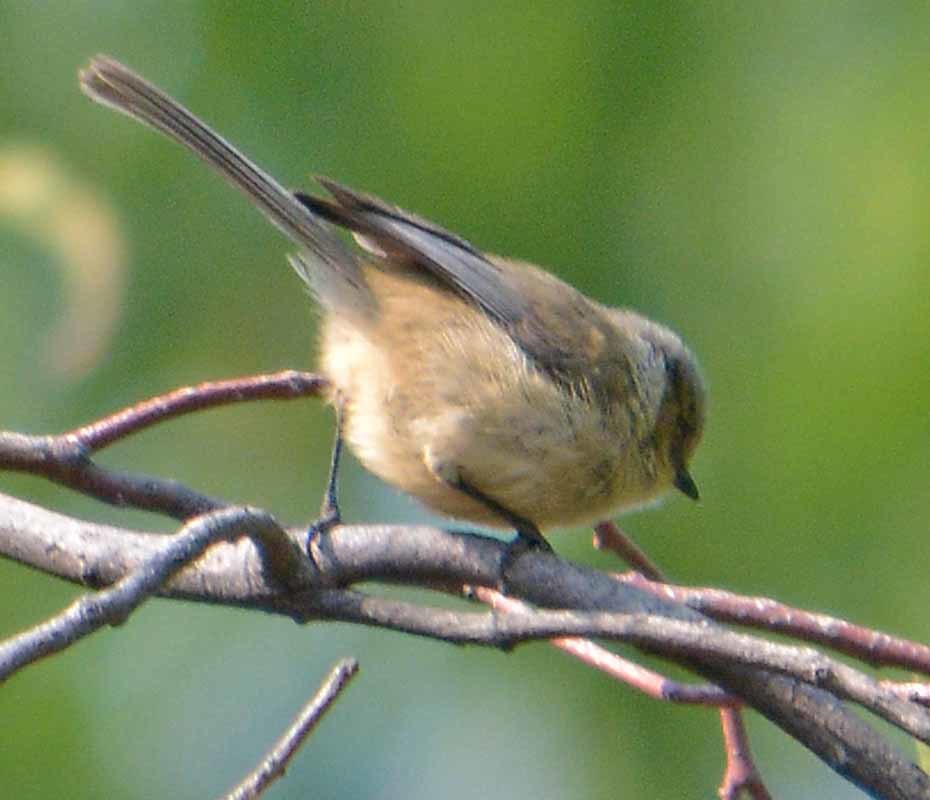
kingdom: Animalia
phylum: Chordata
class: Aves
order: Passeriformes
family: Aegithalidae
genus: Psaltriparus
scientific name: Psaltriparus minimus
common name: American bushtit
